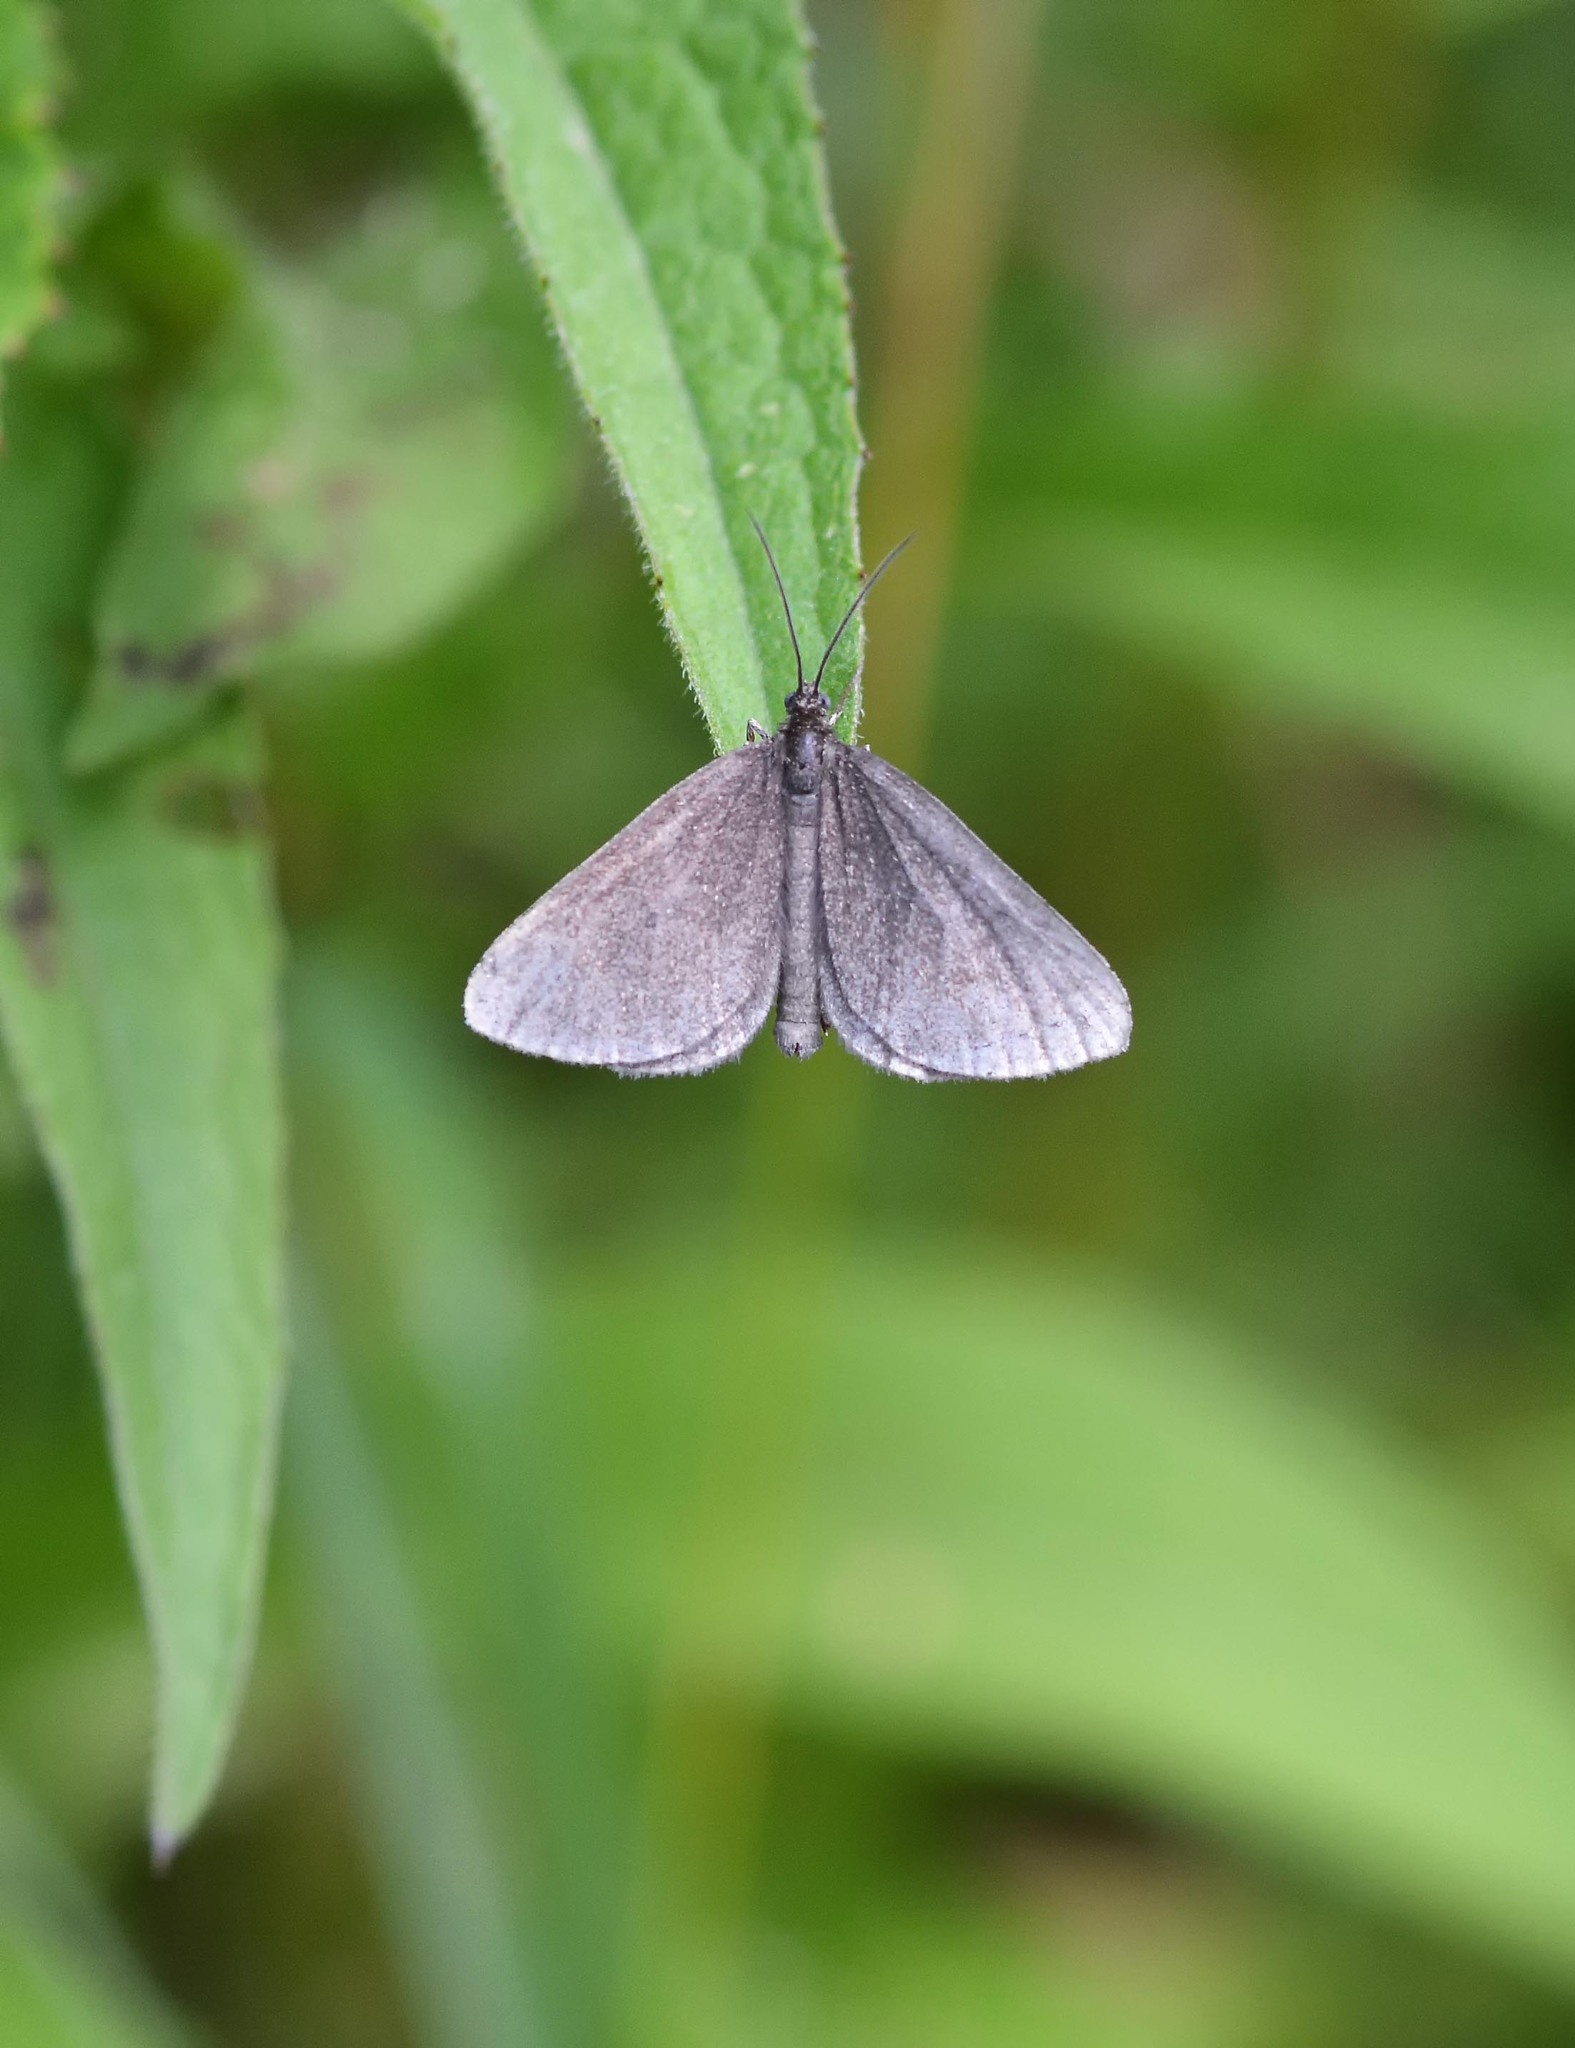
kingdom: Animalia
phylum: Arthropoda
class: Insecta
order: Lepidoptera
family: Geometridae
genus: Odezia
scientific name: Odezia atrata
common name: Chimney sweeper
